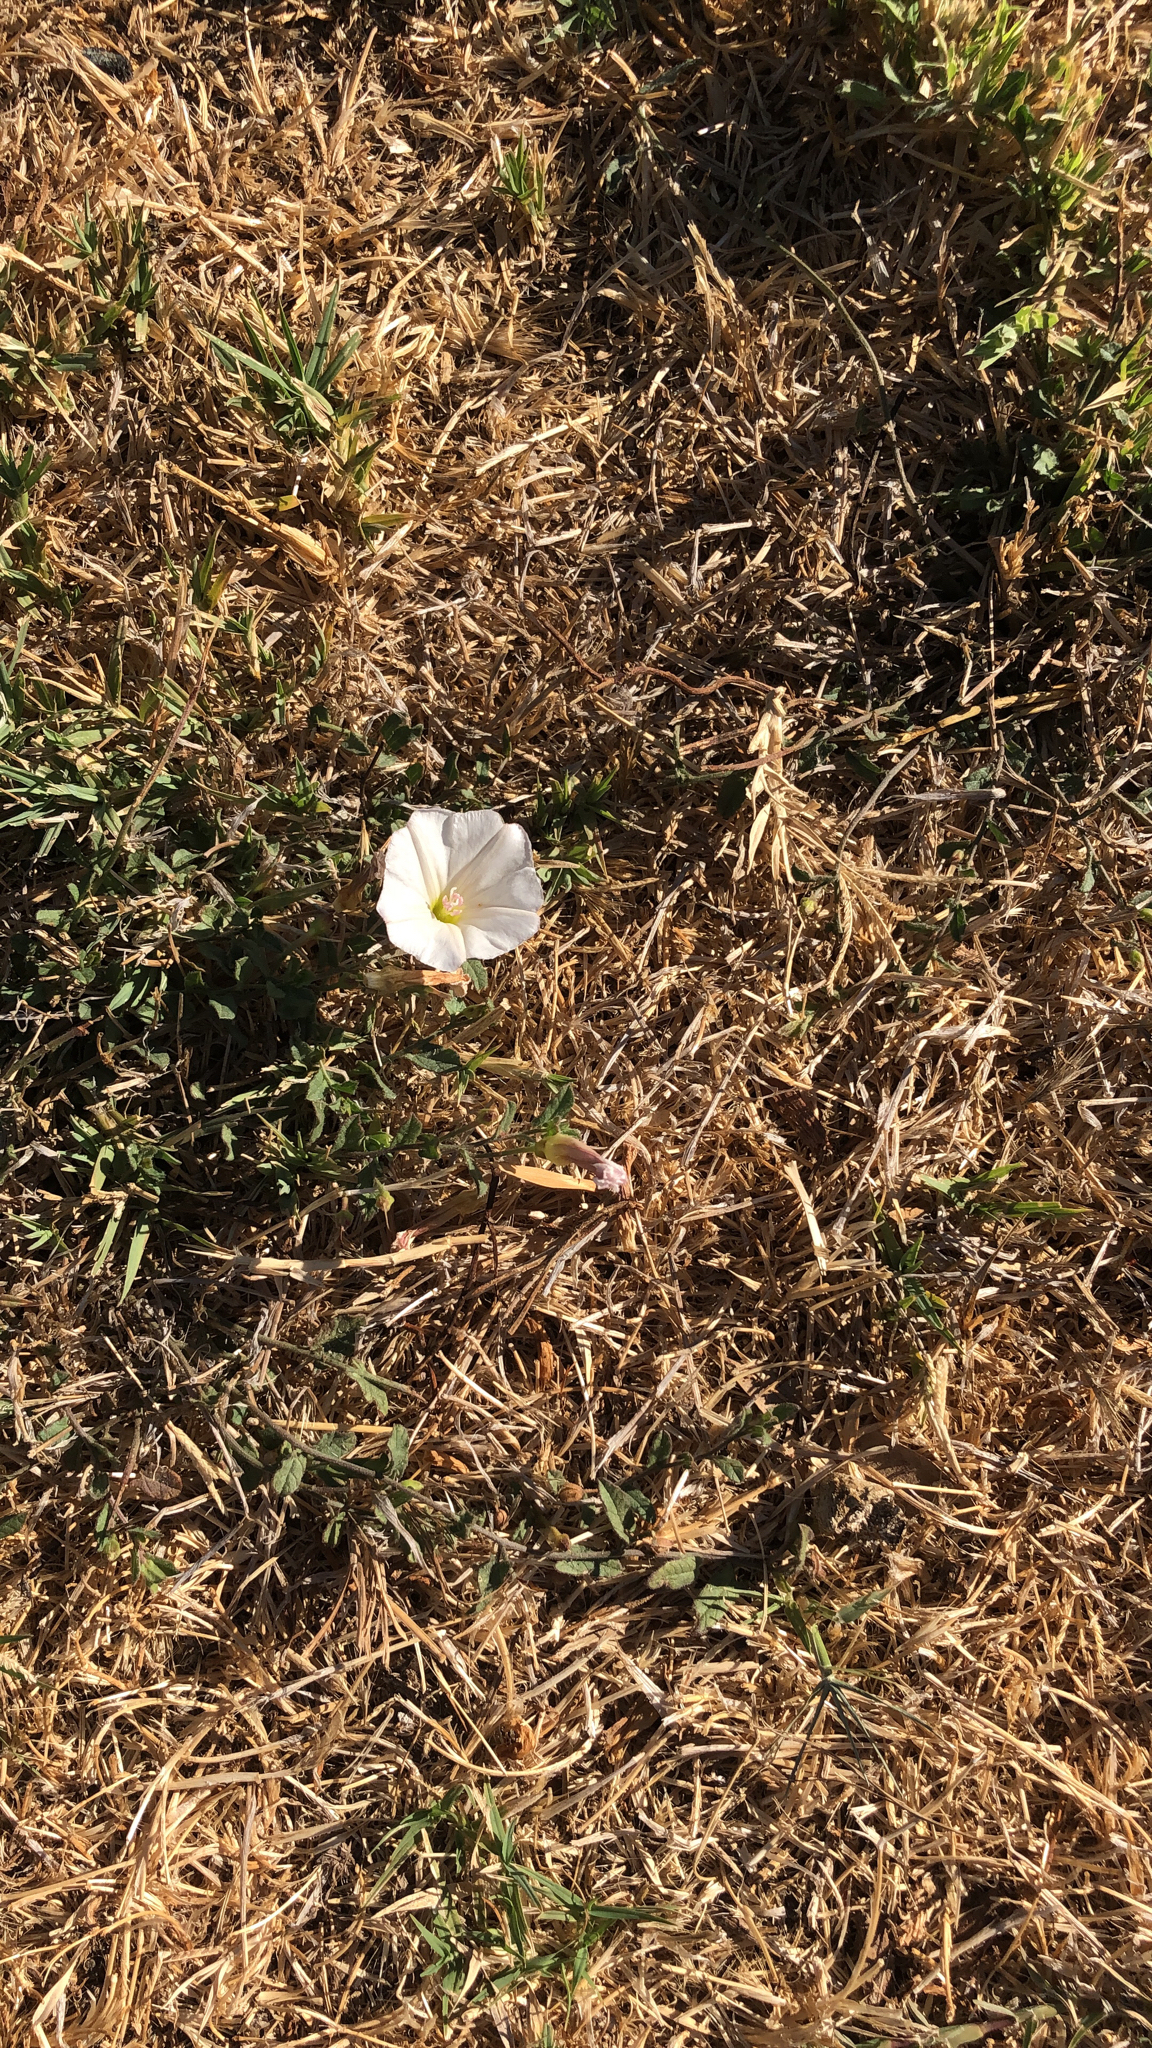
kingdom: Plantae
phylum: Tracheophyta
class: Magnoliopsida
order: Solanales
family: Convolvulaceae
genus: Convolvulus
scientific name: Convolvulus arvensis
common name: Field bindweed
